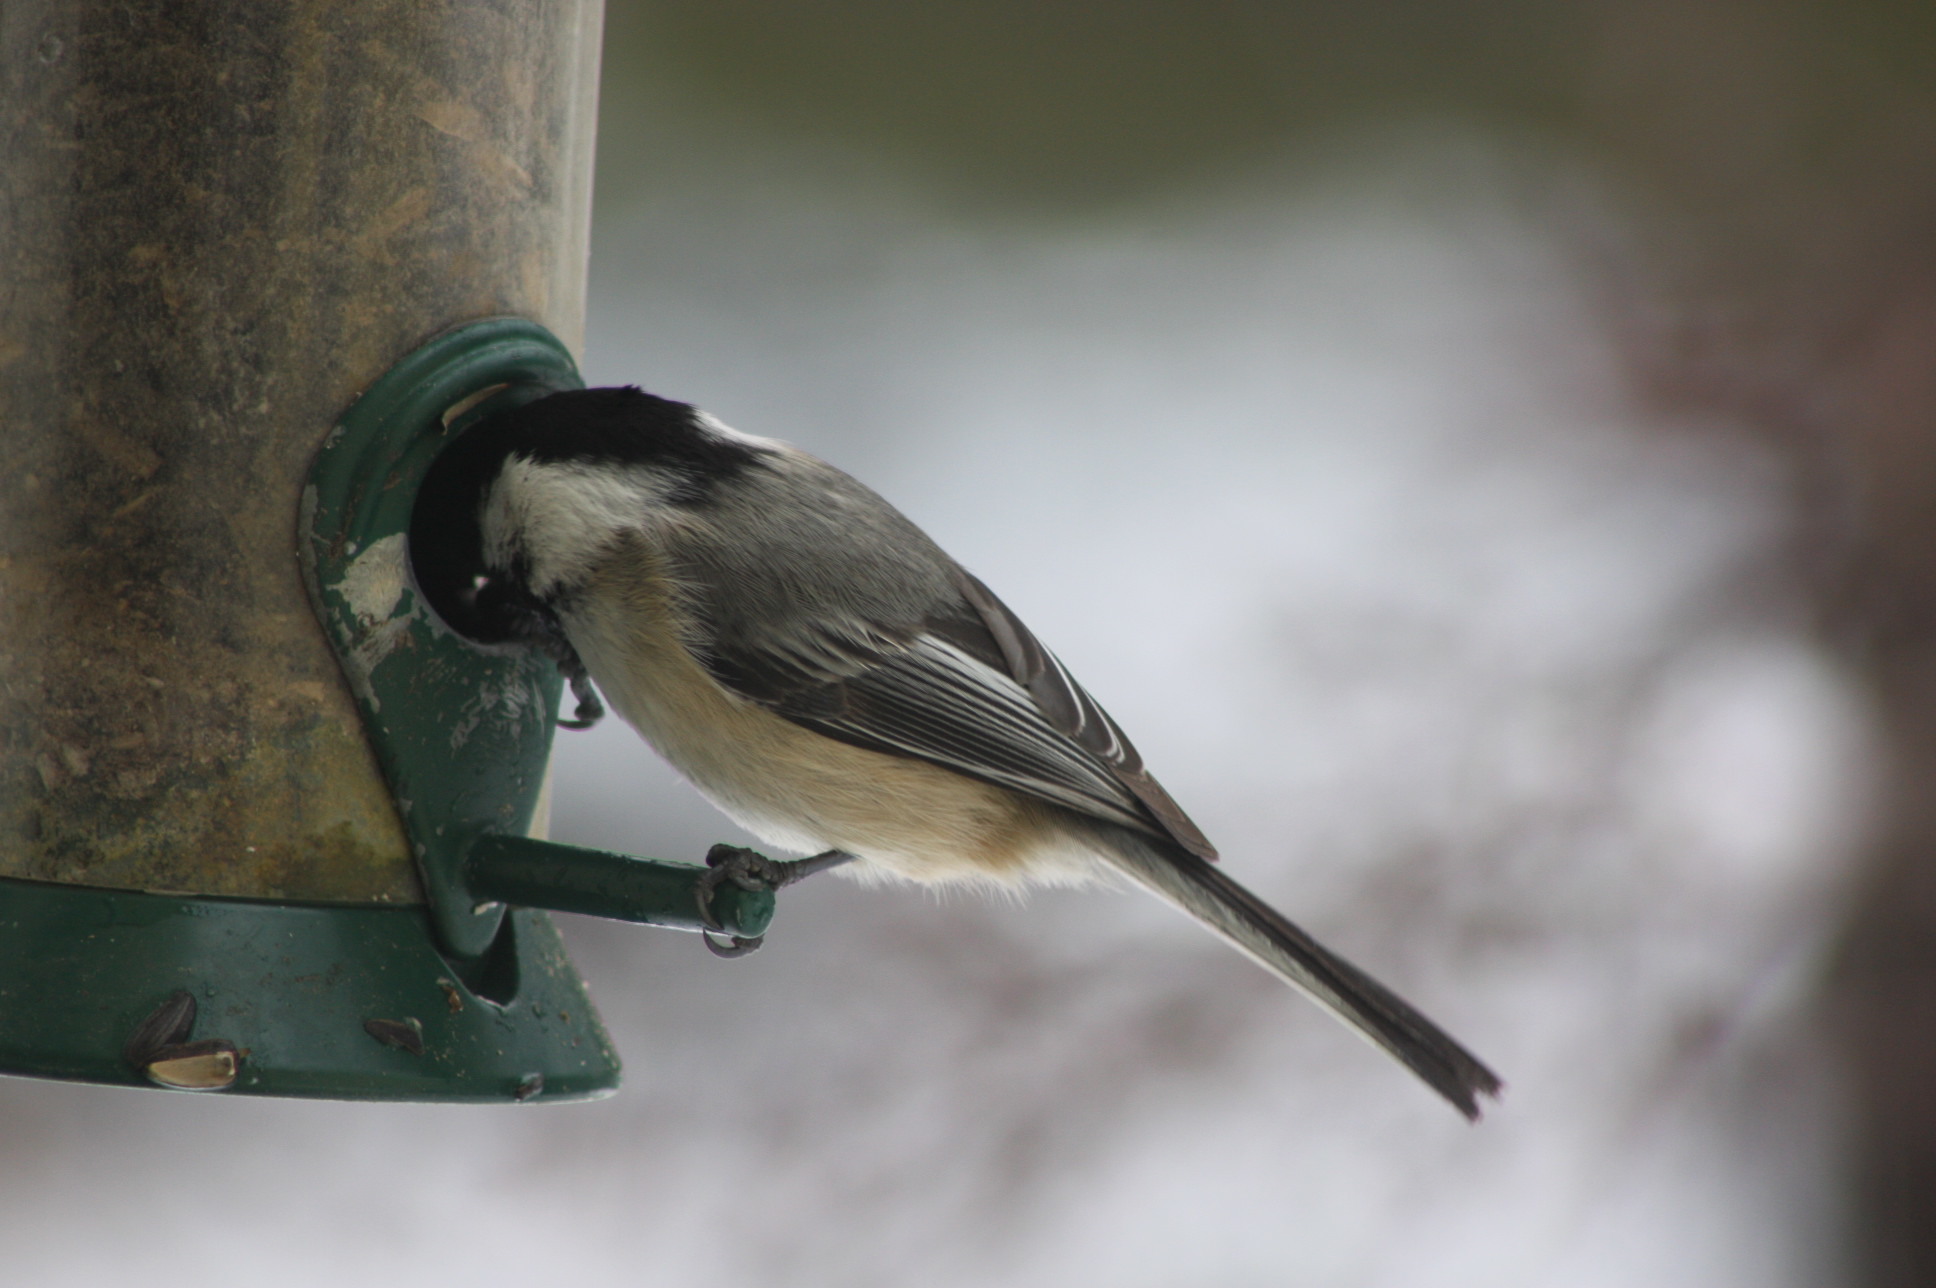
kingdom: Animalia
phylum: Chordata
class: Aves
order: Passeriformes
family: Paridae
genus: Poecile
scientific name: Poecile atricapillus
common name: Black-capped chickadee
